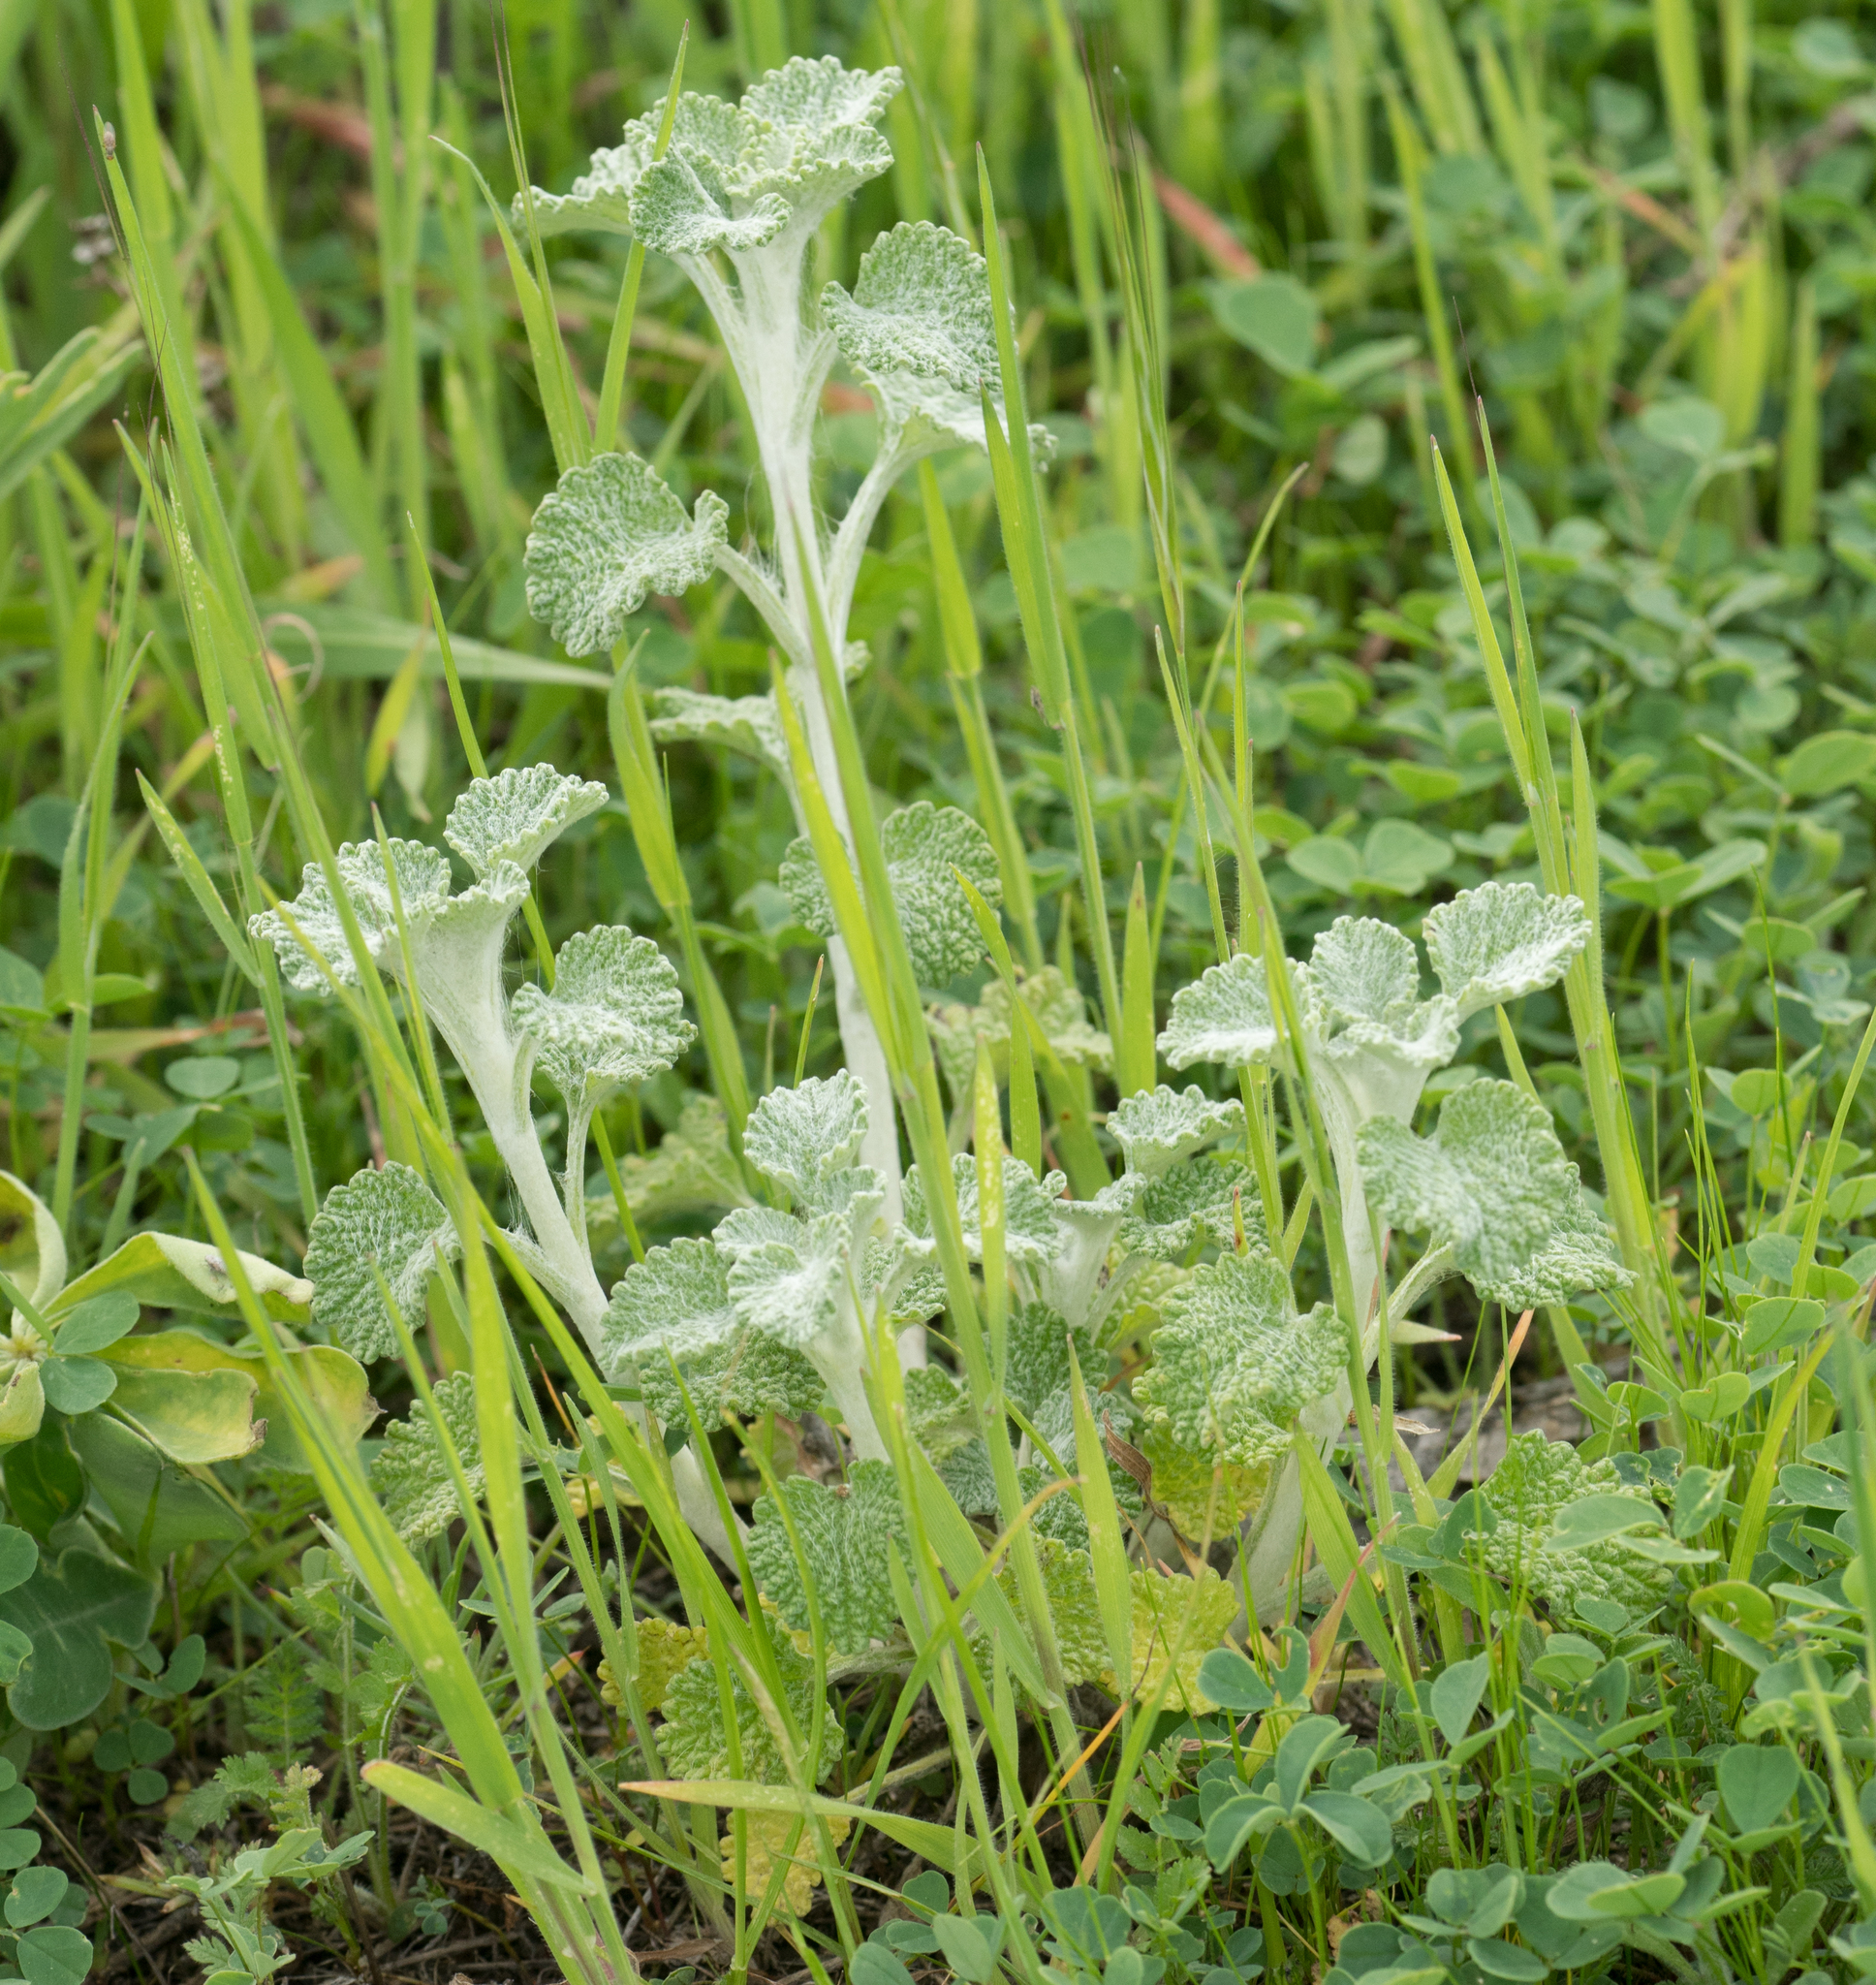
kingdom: Plantae
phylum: Tracheophyta
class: Magnoliopsida
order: Lamiales
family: Lamiaceae
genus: Marrubium
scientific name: Marrubium vulgare
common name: Horehound
